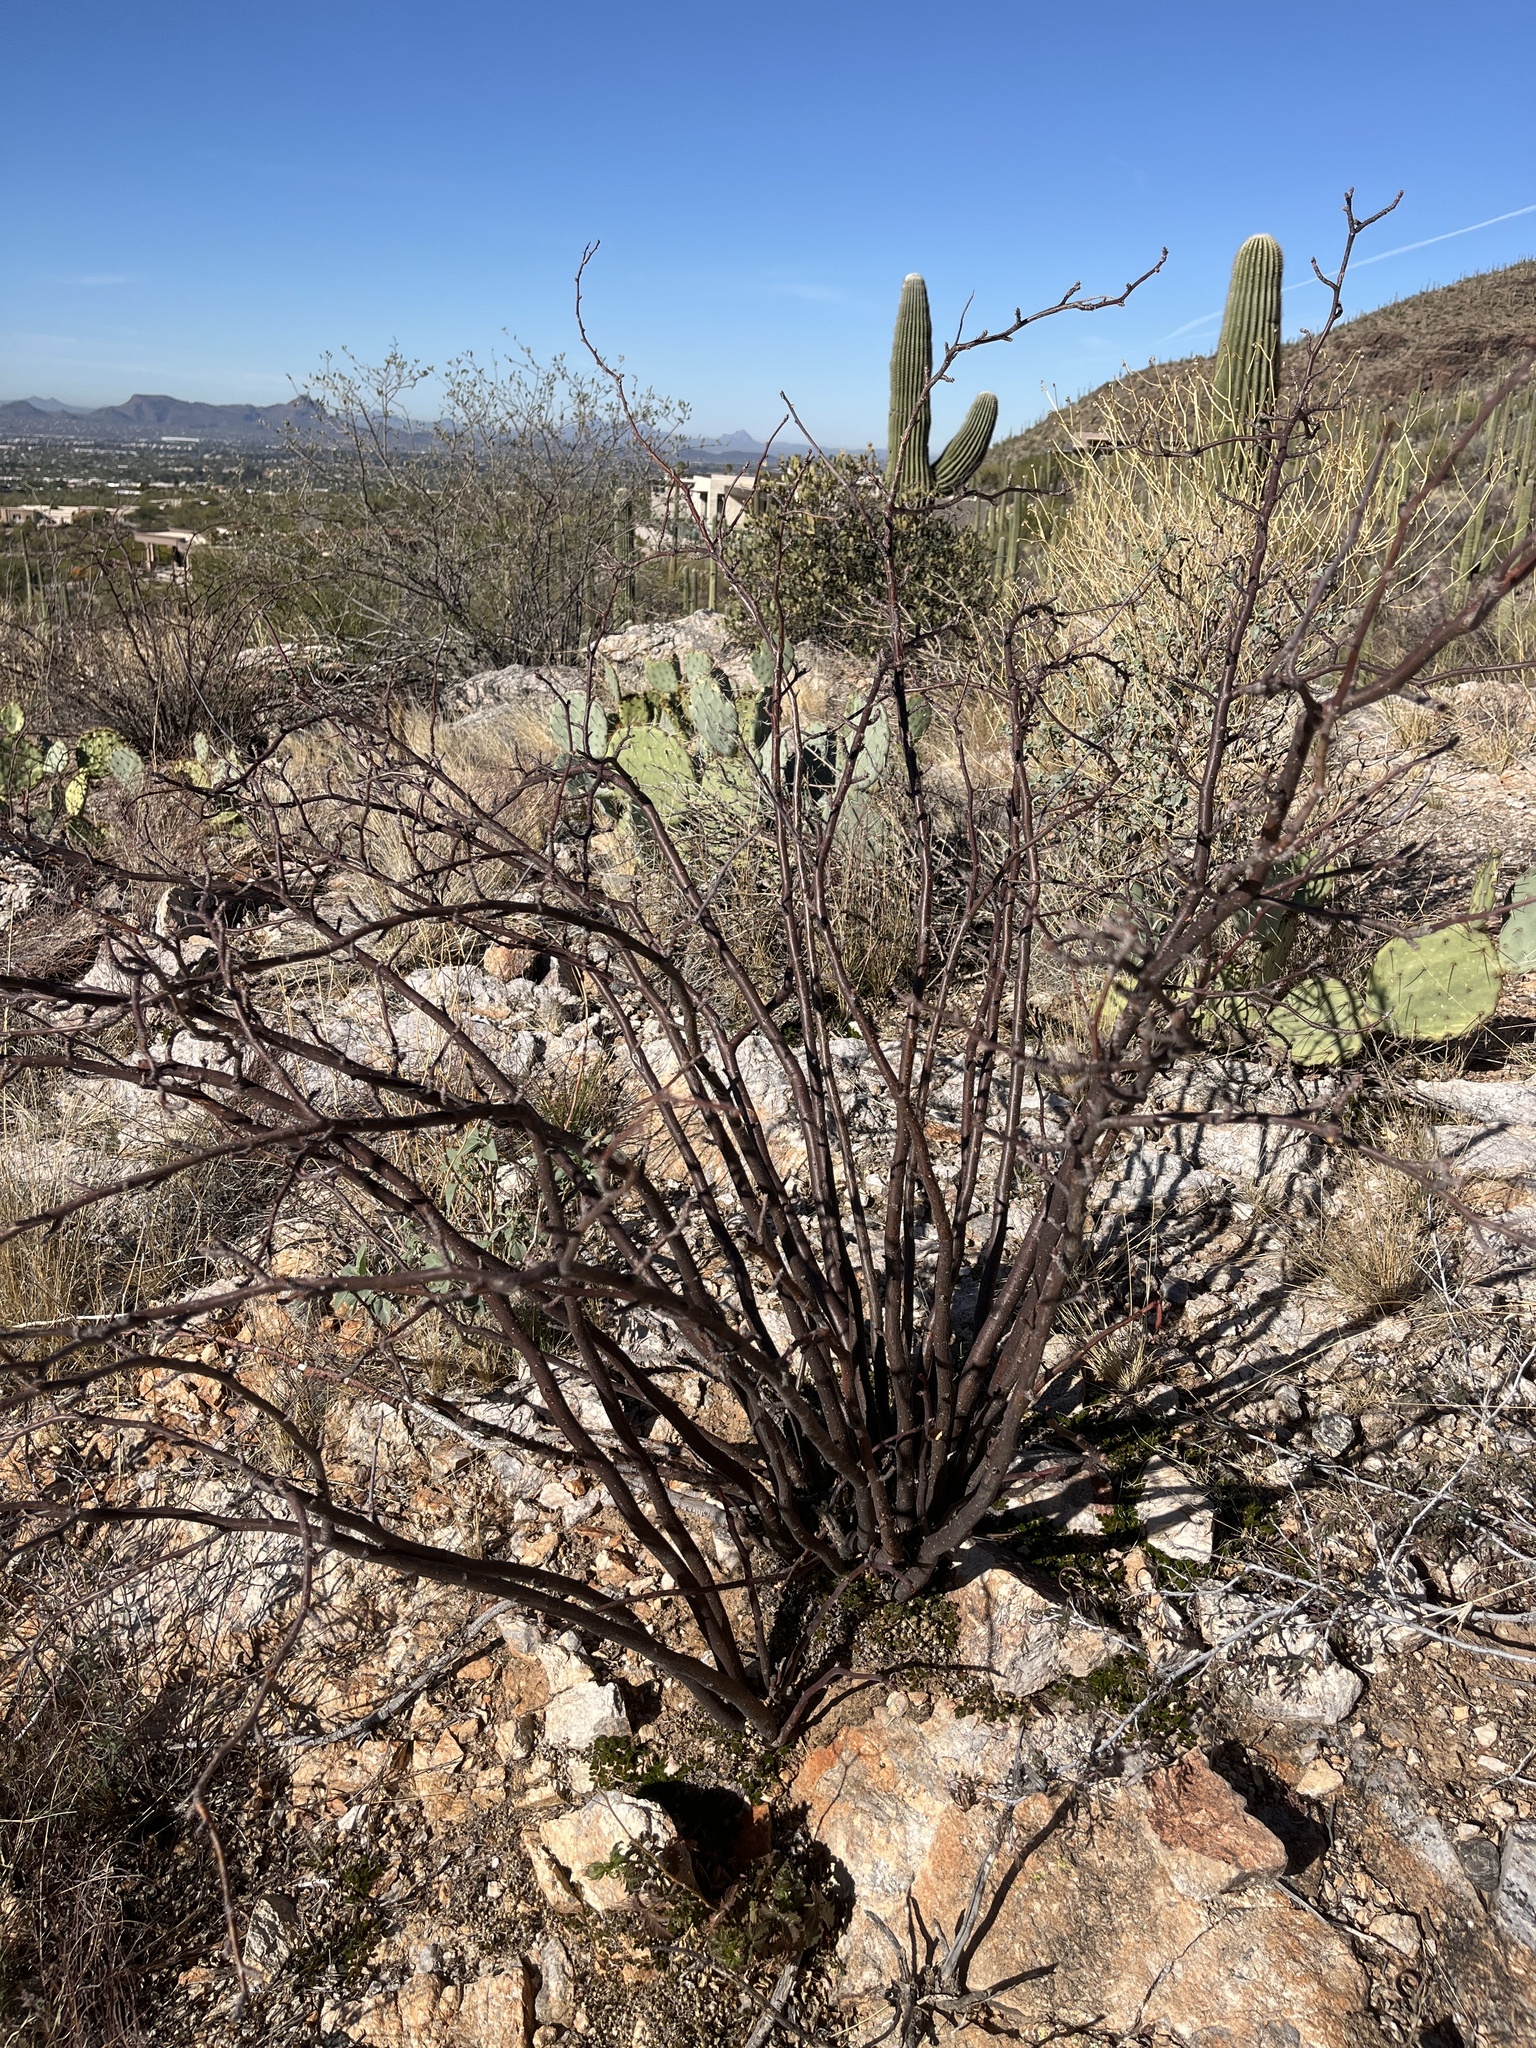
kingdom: Plantae
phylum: Tracheophyta
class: Magnoliopsida
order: Malpighiales
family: Euphorbiaceae
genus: Jatropha
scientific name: Jatropha cardiophylla
